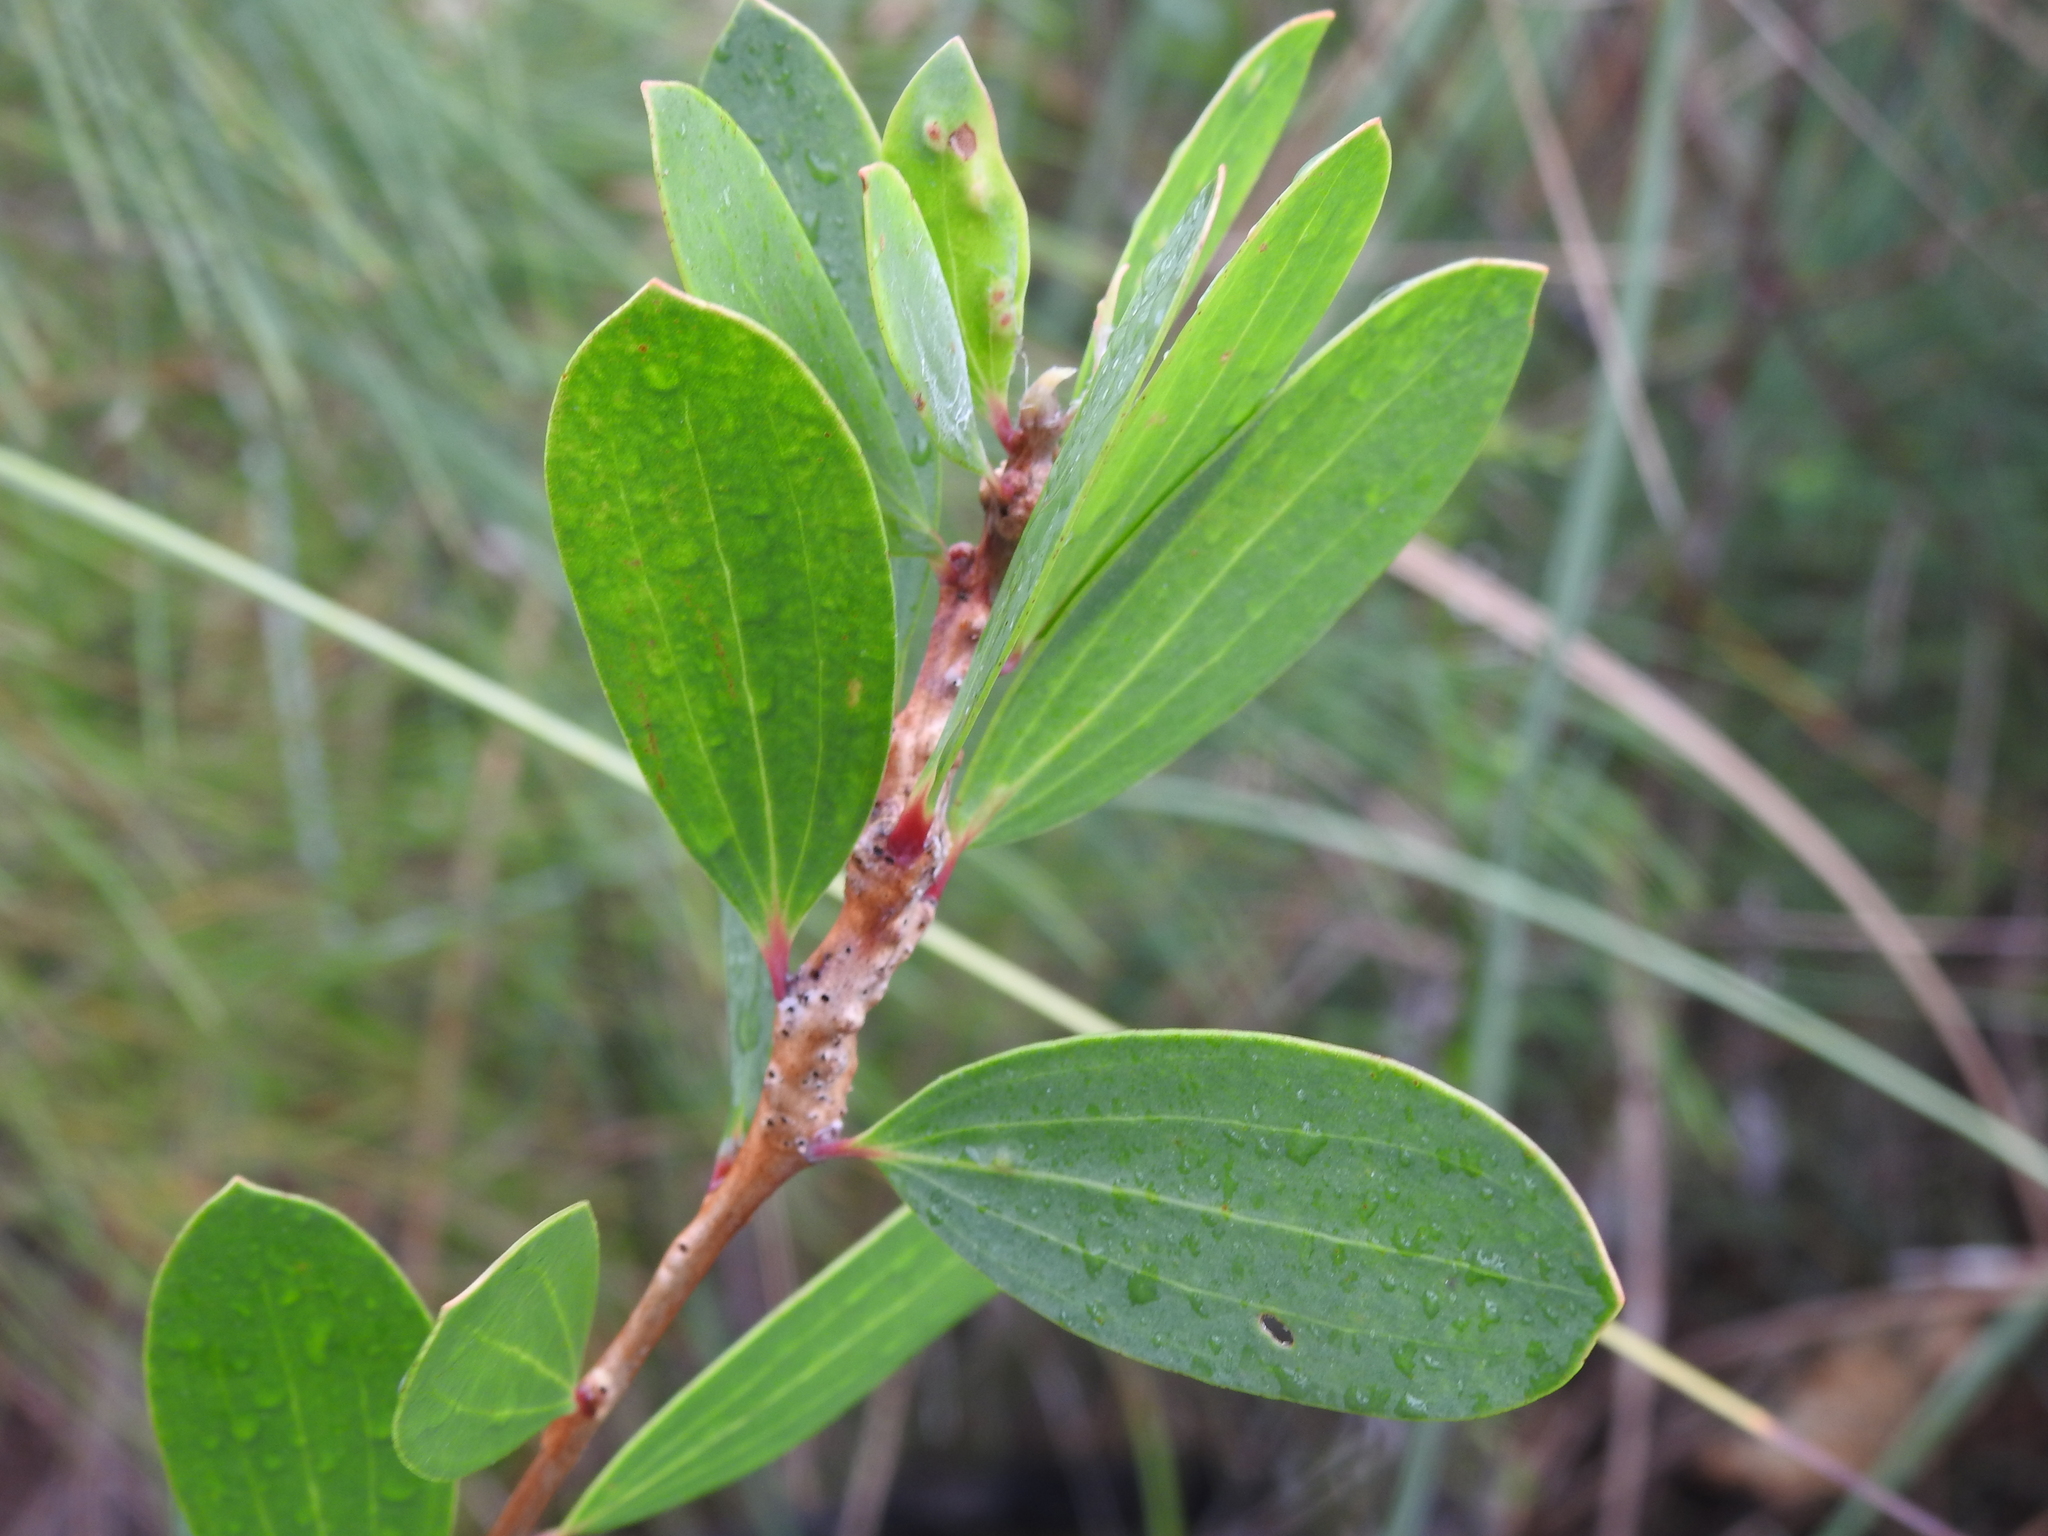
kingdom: Plantae
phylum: Tracheophyta
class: Magnoliopsida
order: Myrtales
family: Myrtaceae
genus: Melaleuca
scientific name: Melaleuca quinquenervia
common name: Punktree
